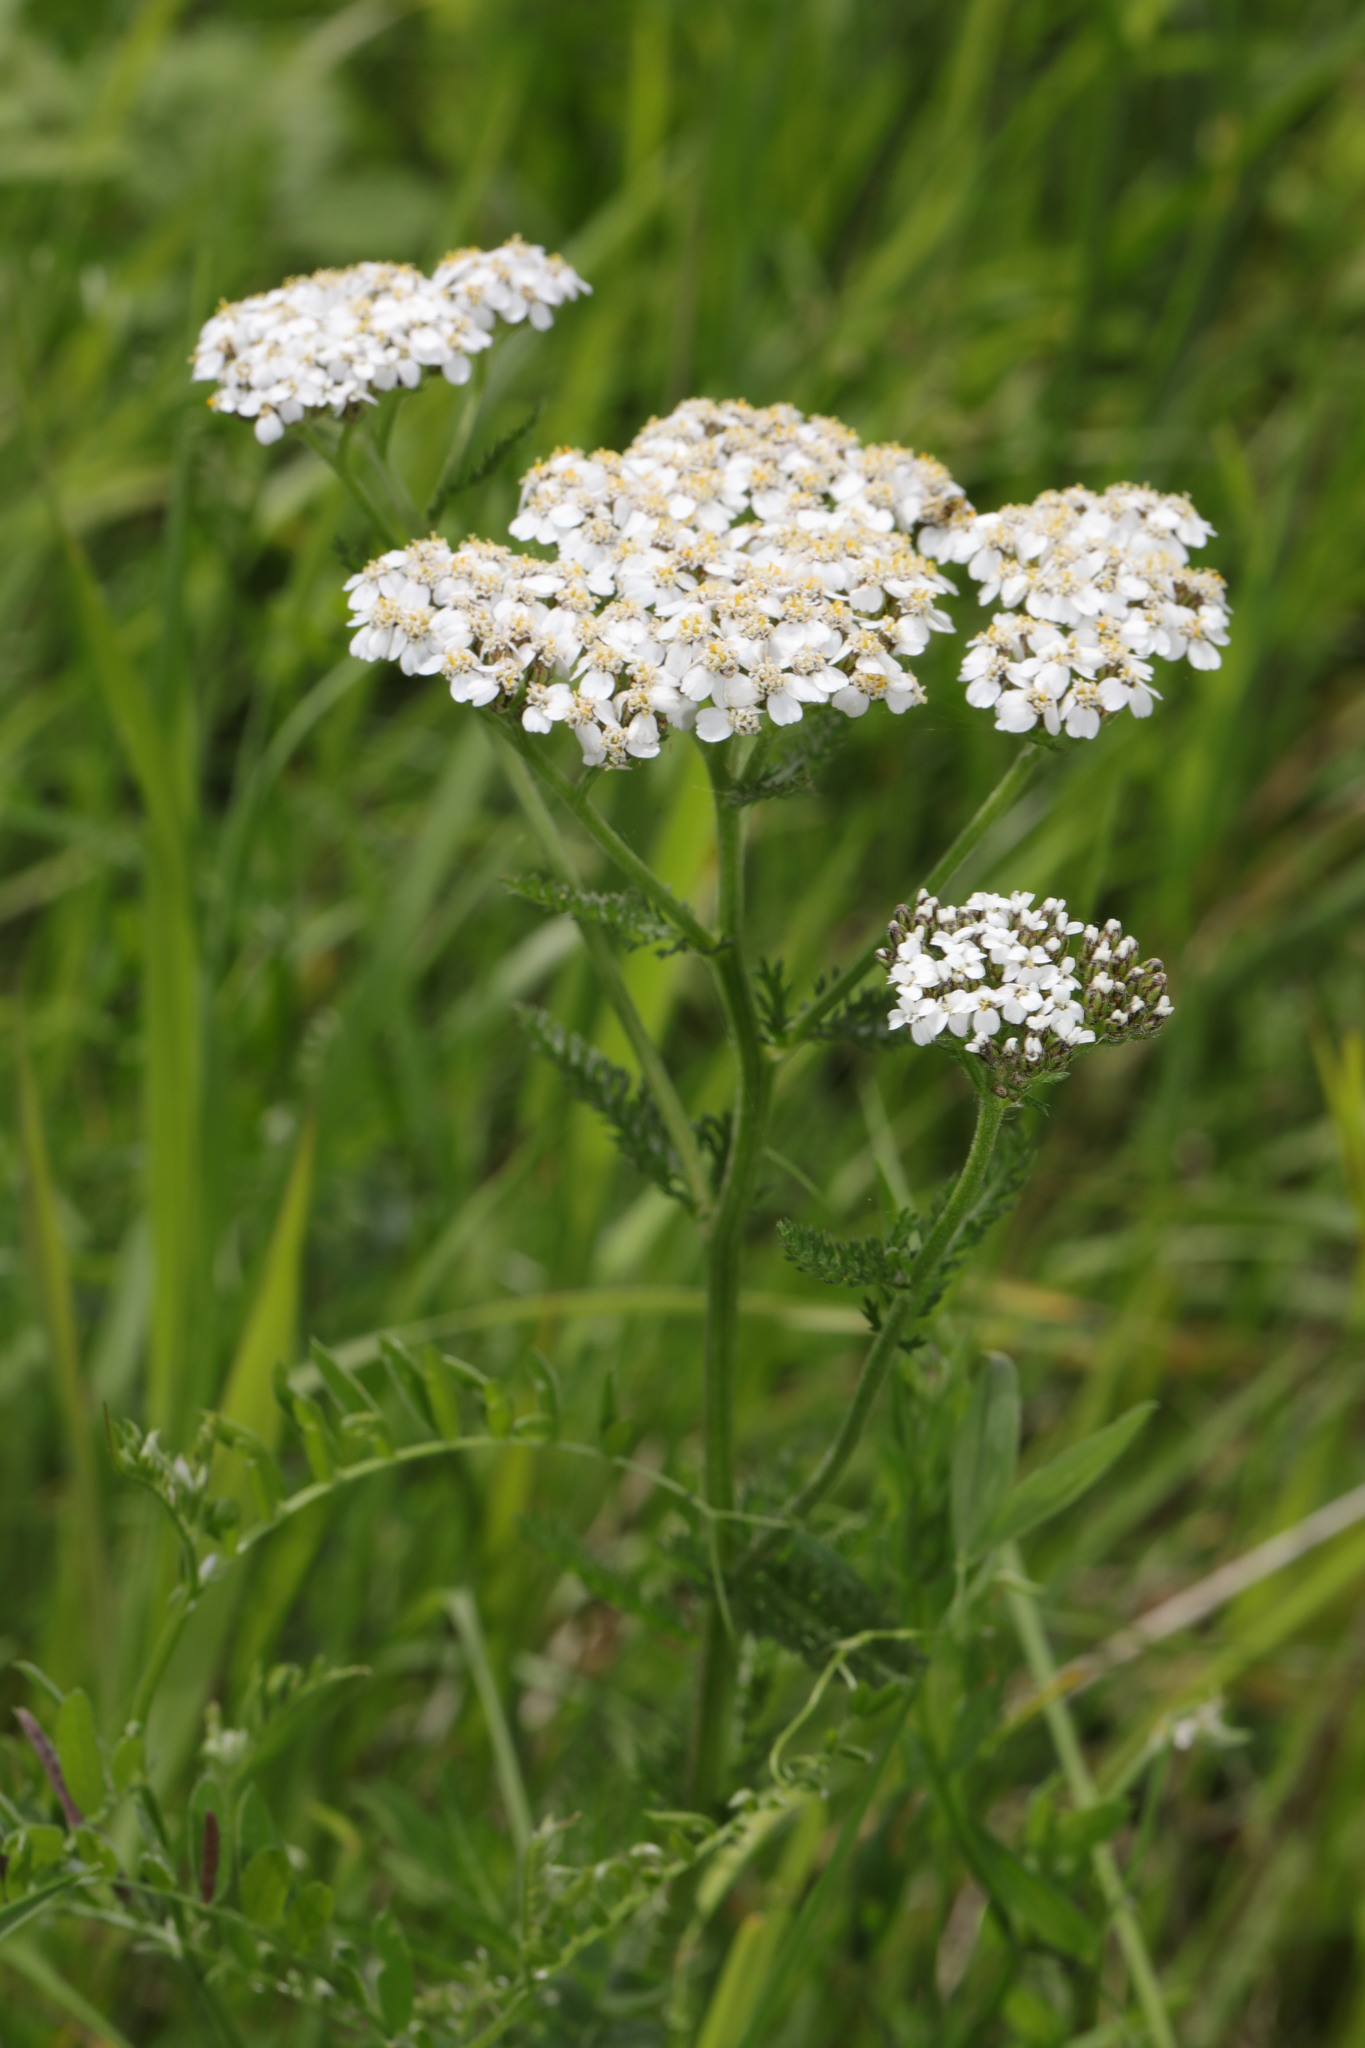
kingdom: Plantae
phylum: Tracheophyta
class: Magnoliopsida
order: Asterales
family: Asteraceae
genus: Achillea
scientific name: Achillea millefolium
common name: Yarrow
